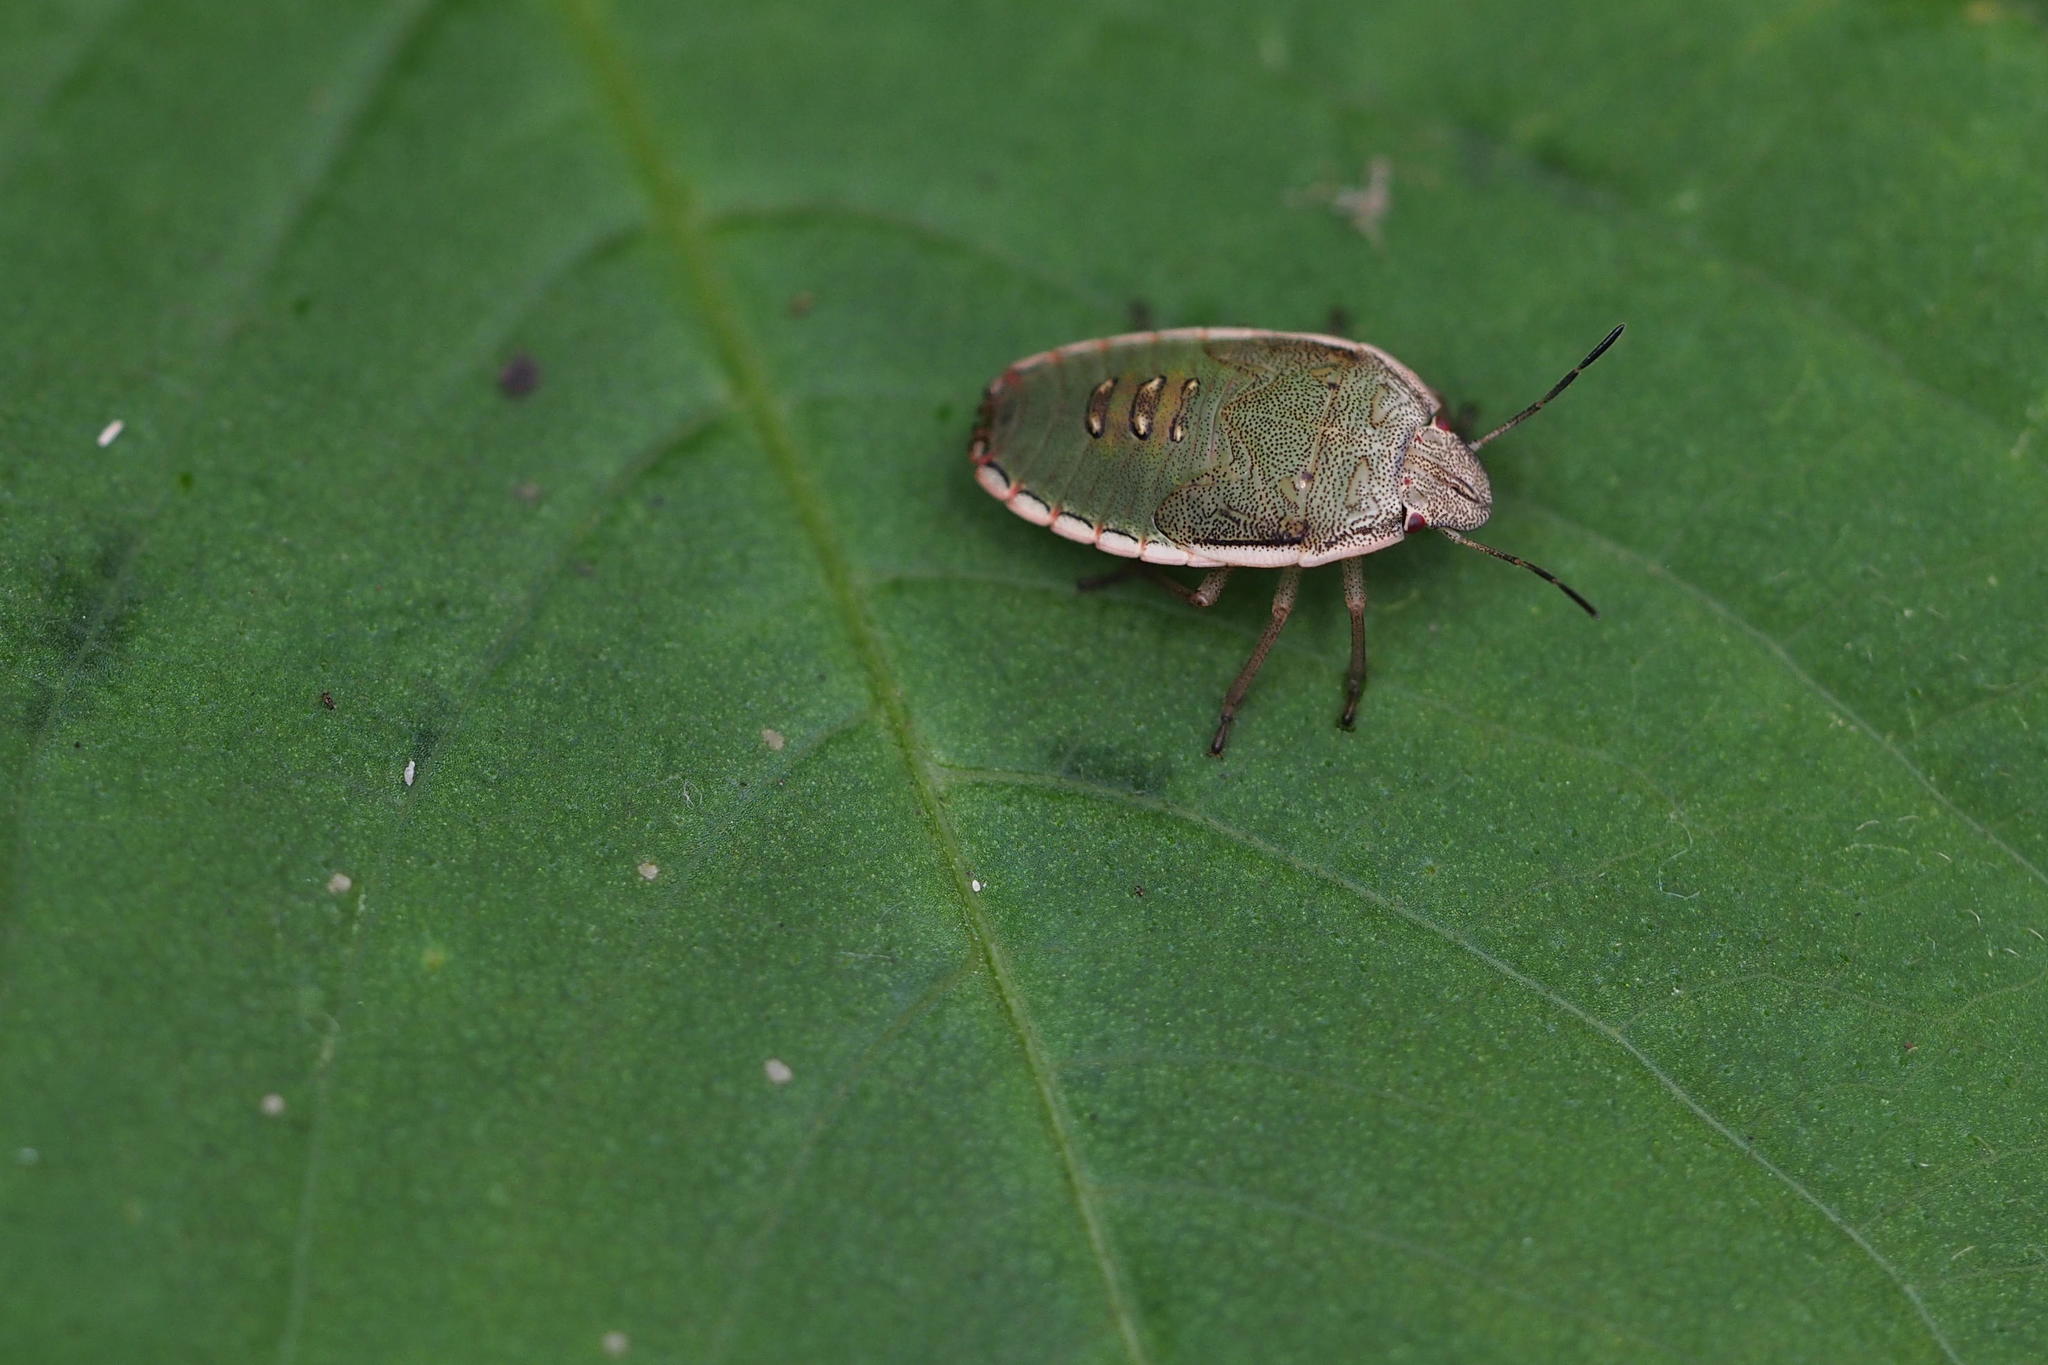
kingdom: Animalia
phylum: Arthropoda
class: Insecta
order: Hemiptera
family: Pentatomidae
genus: Aenaria
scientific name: Aenaria lewisi
